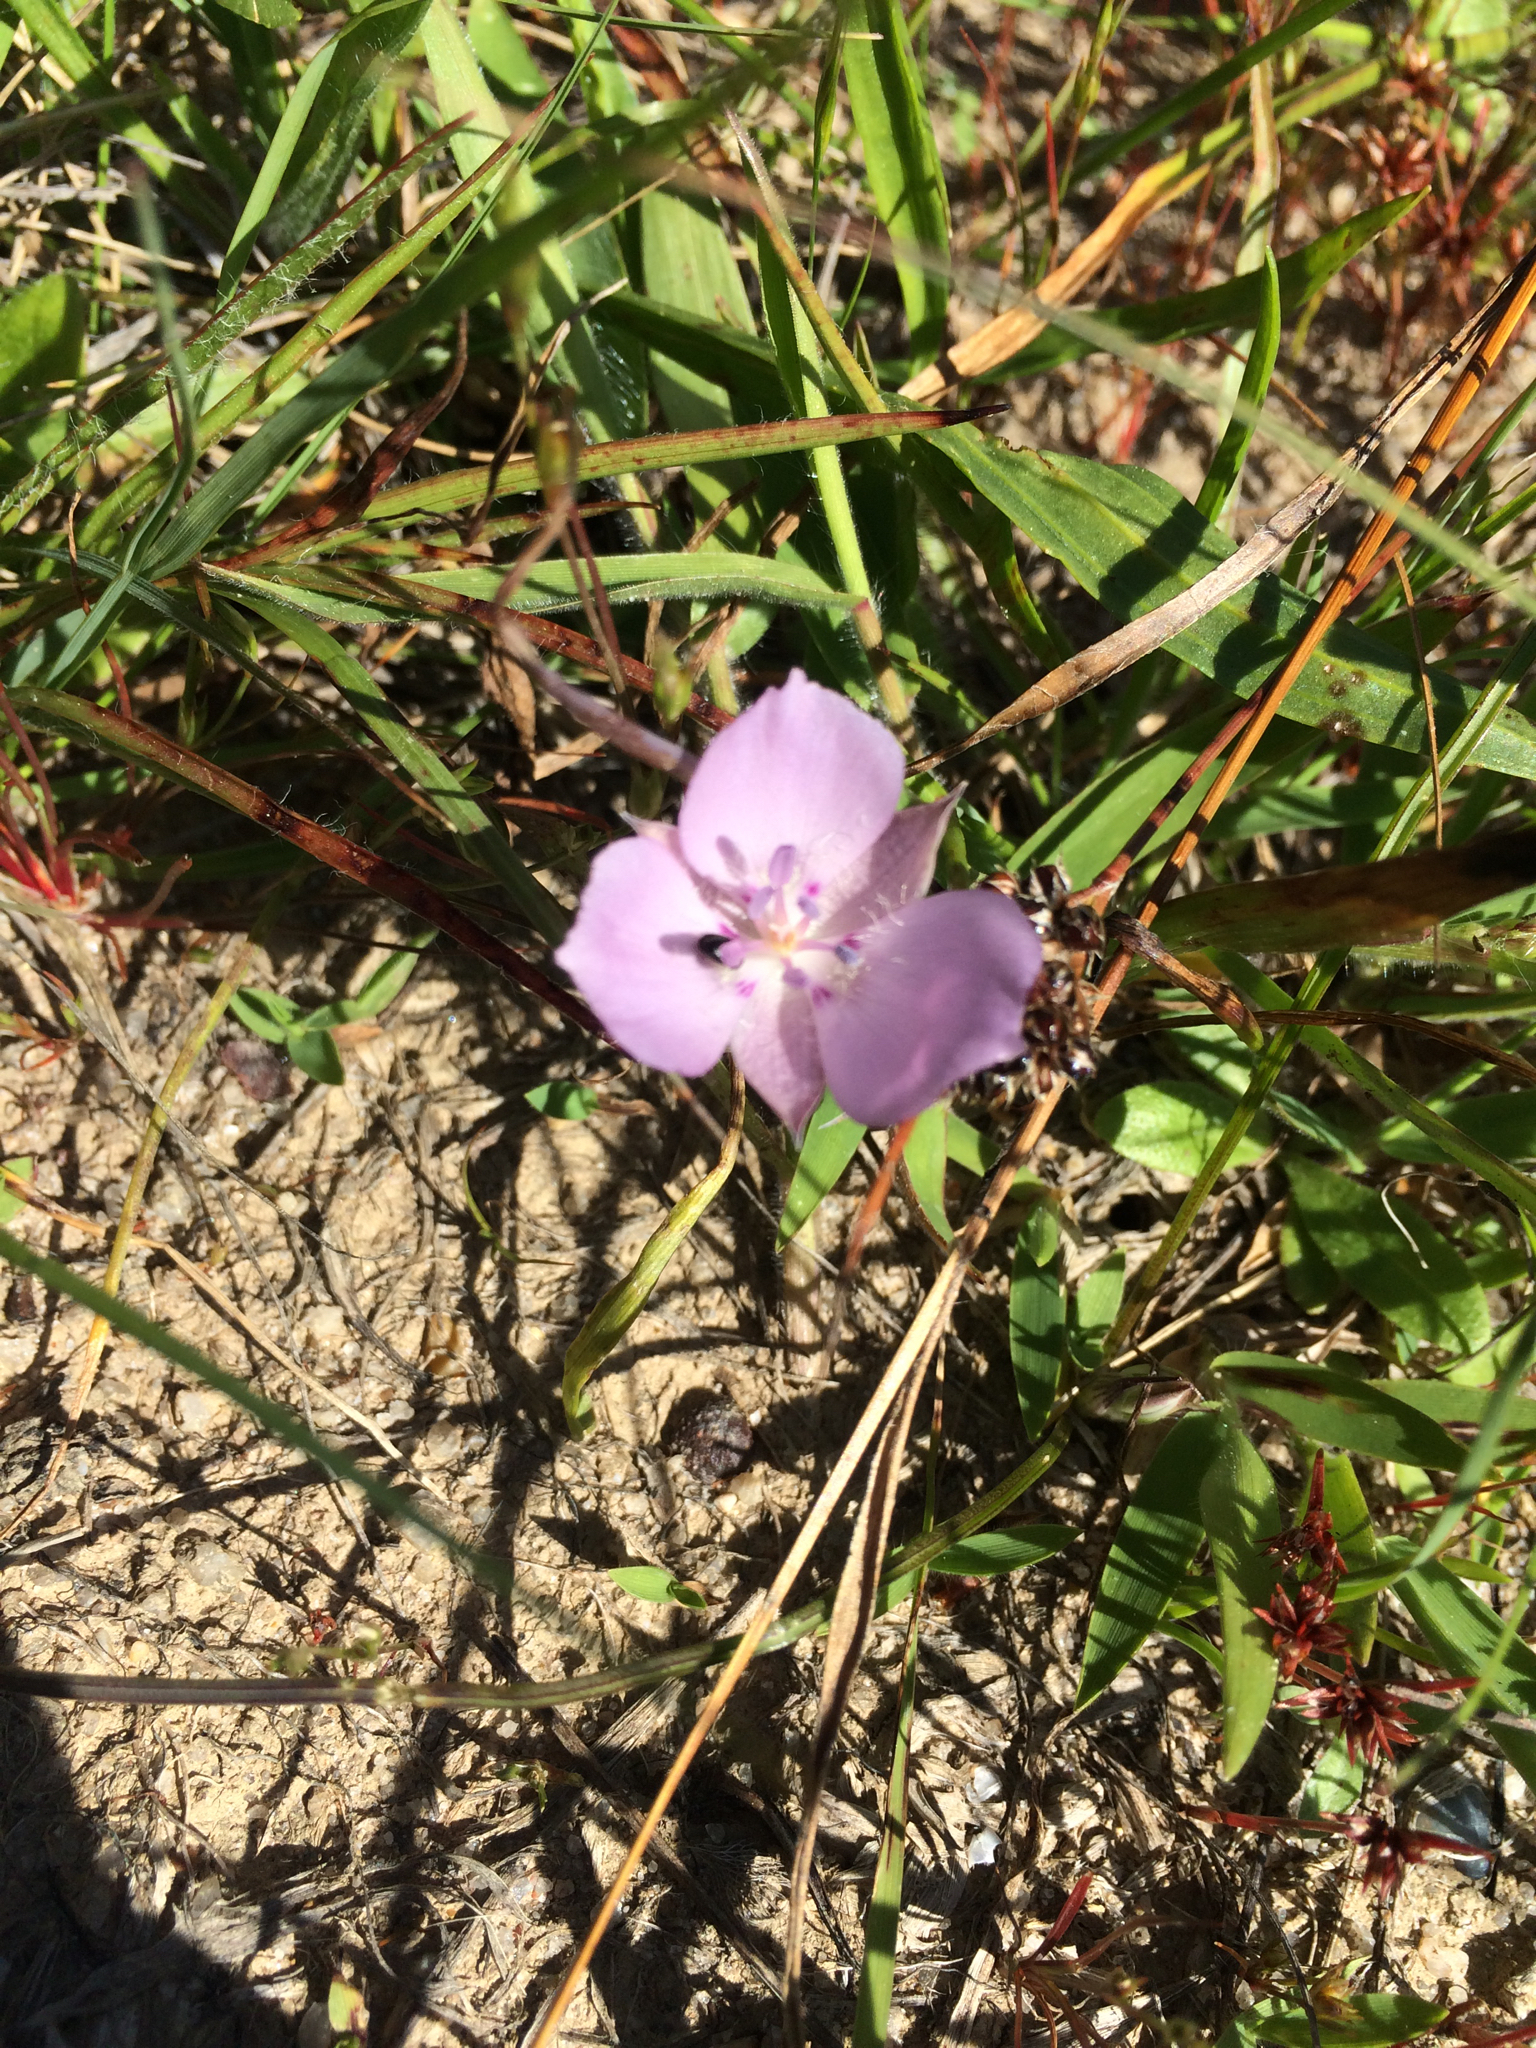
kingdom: Plantae
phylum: Tracheophyta
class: Liliopsida
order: Liliales
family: Liliaceae
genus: Calochortus
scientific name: Calochortus uniflorus
